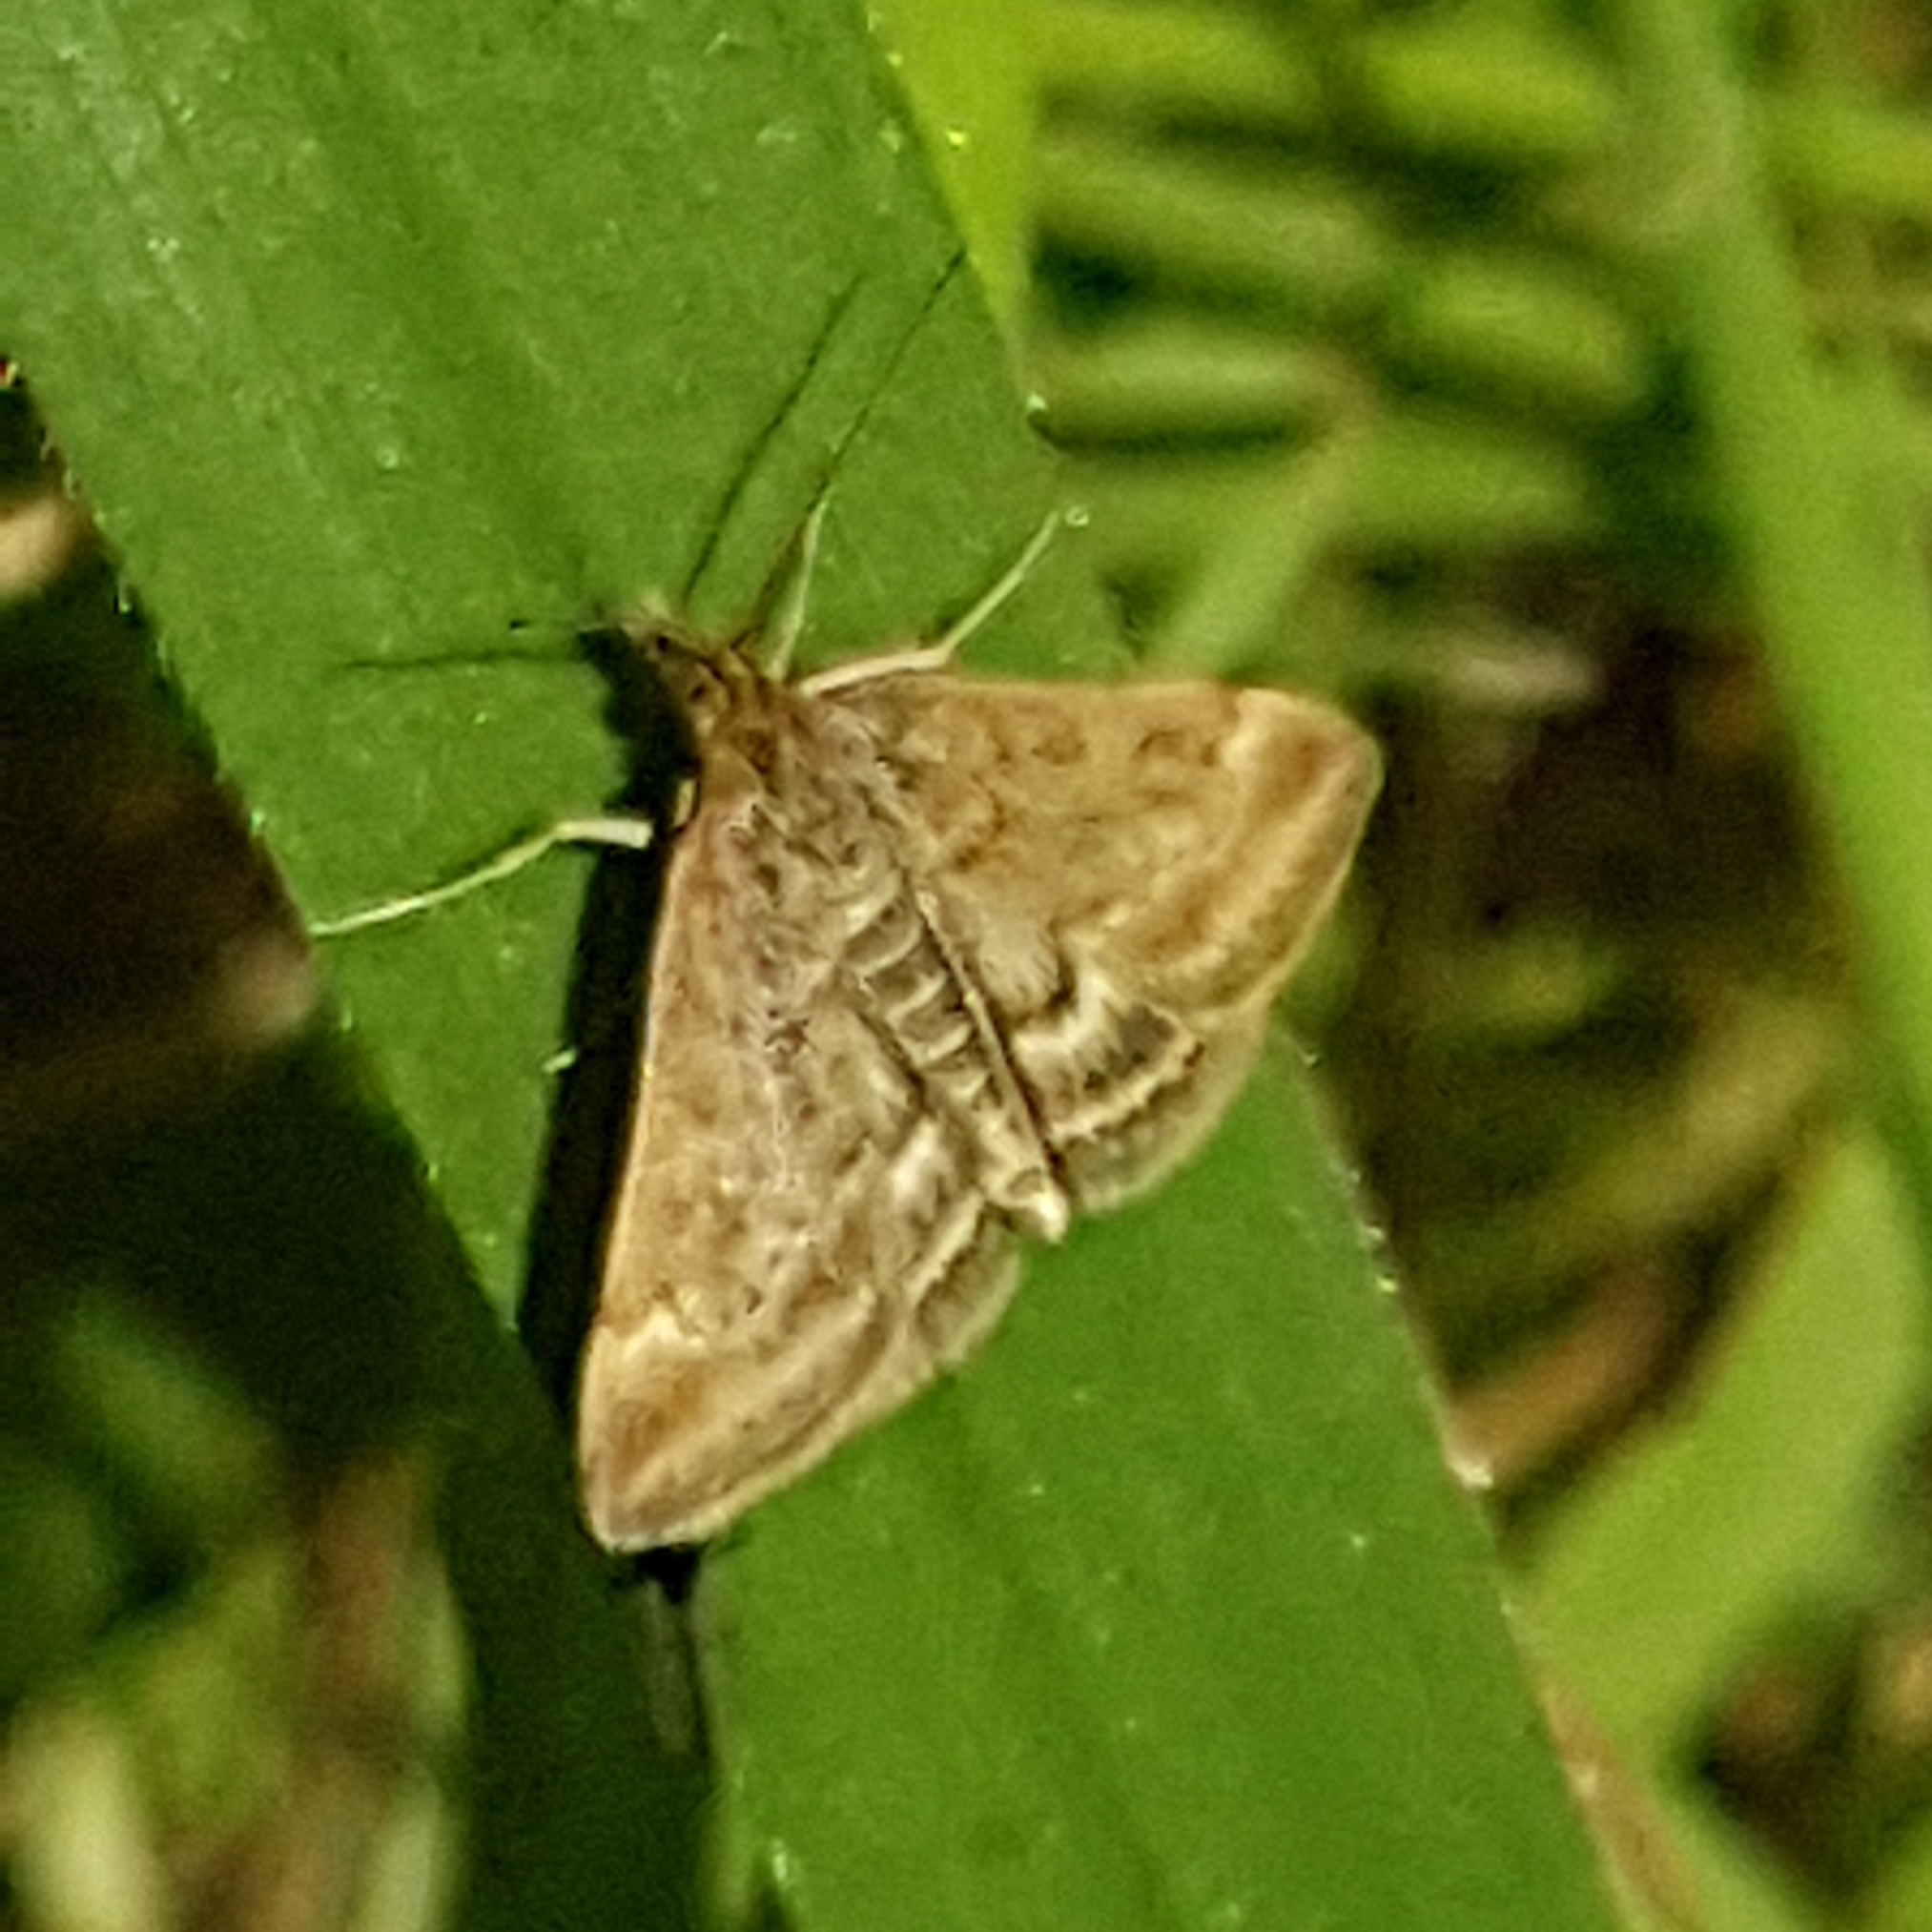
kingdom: Animalia
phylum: Arthropoda
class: Insecta
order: Lepidoptera
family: Crambidae
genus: Pyrausta
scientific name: Pyrausta despicata
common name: Straw-barred pearl
